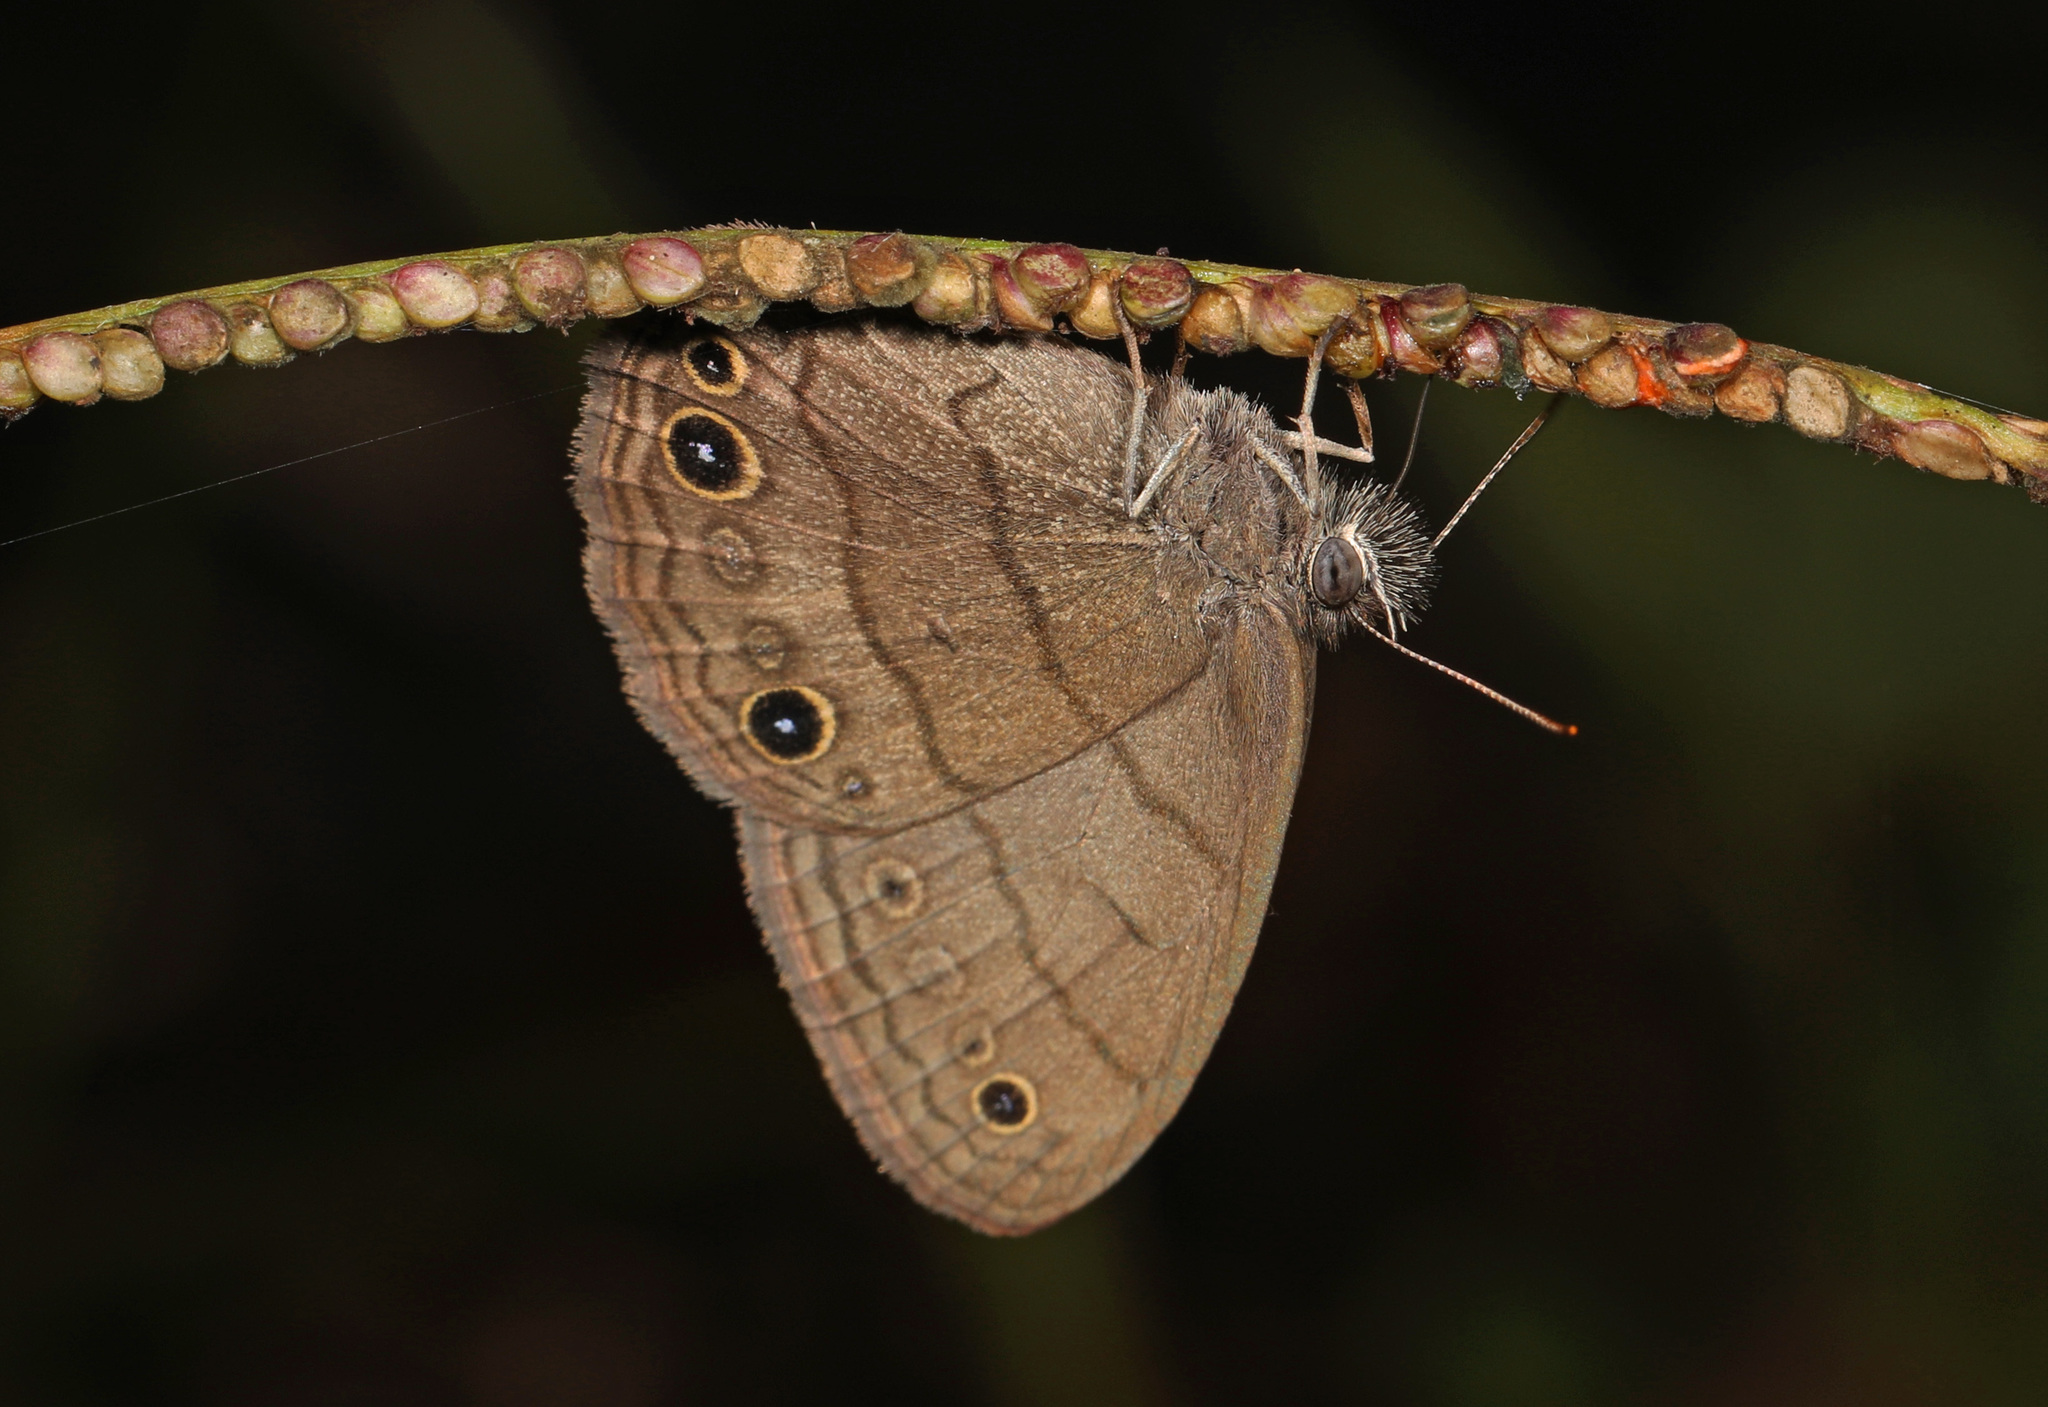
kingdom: Animalia
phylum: Arthropoda
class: Insecta
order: Lepidoptera
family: Nymphalidae
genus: Hermeuptychia
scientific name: Hermeuptychia hermes
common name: Hermes satyr
